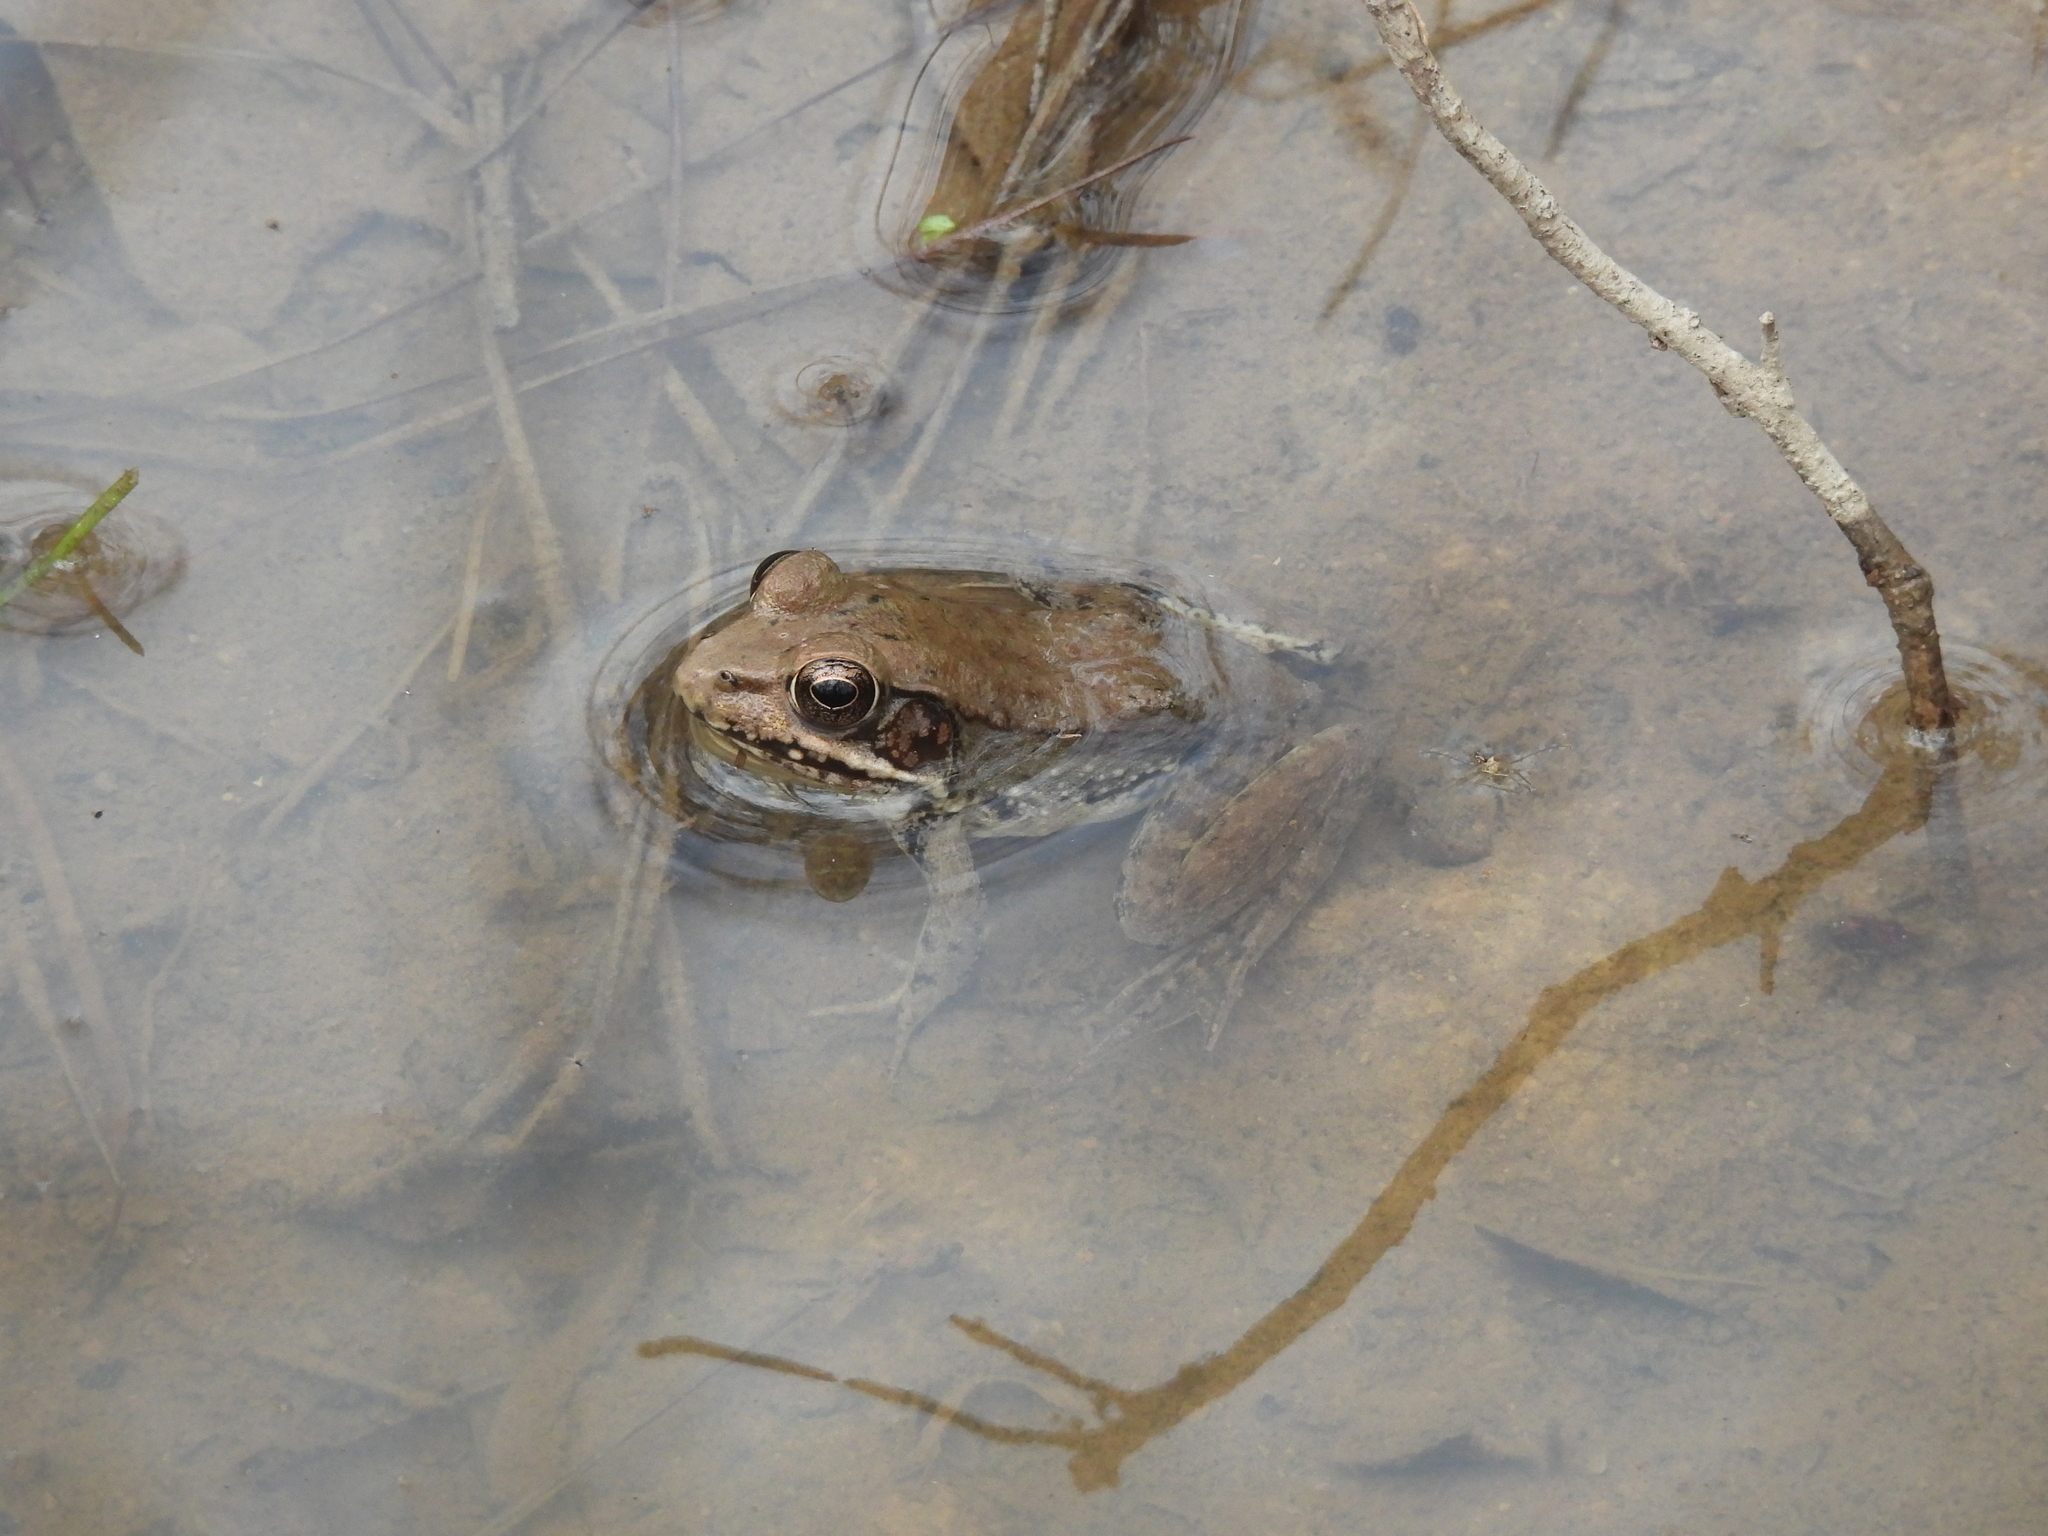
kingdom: Animalia
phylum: Chordata
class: Amphibia
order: Anura
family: Ranidae
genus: Lithobates
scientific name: Lithobates clamitans
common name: Green frog
